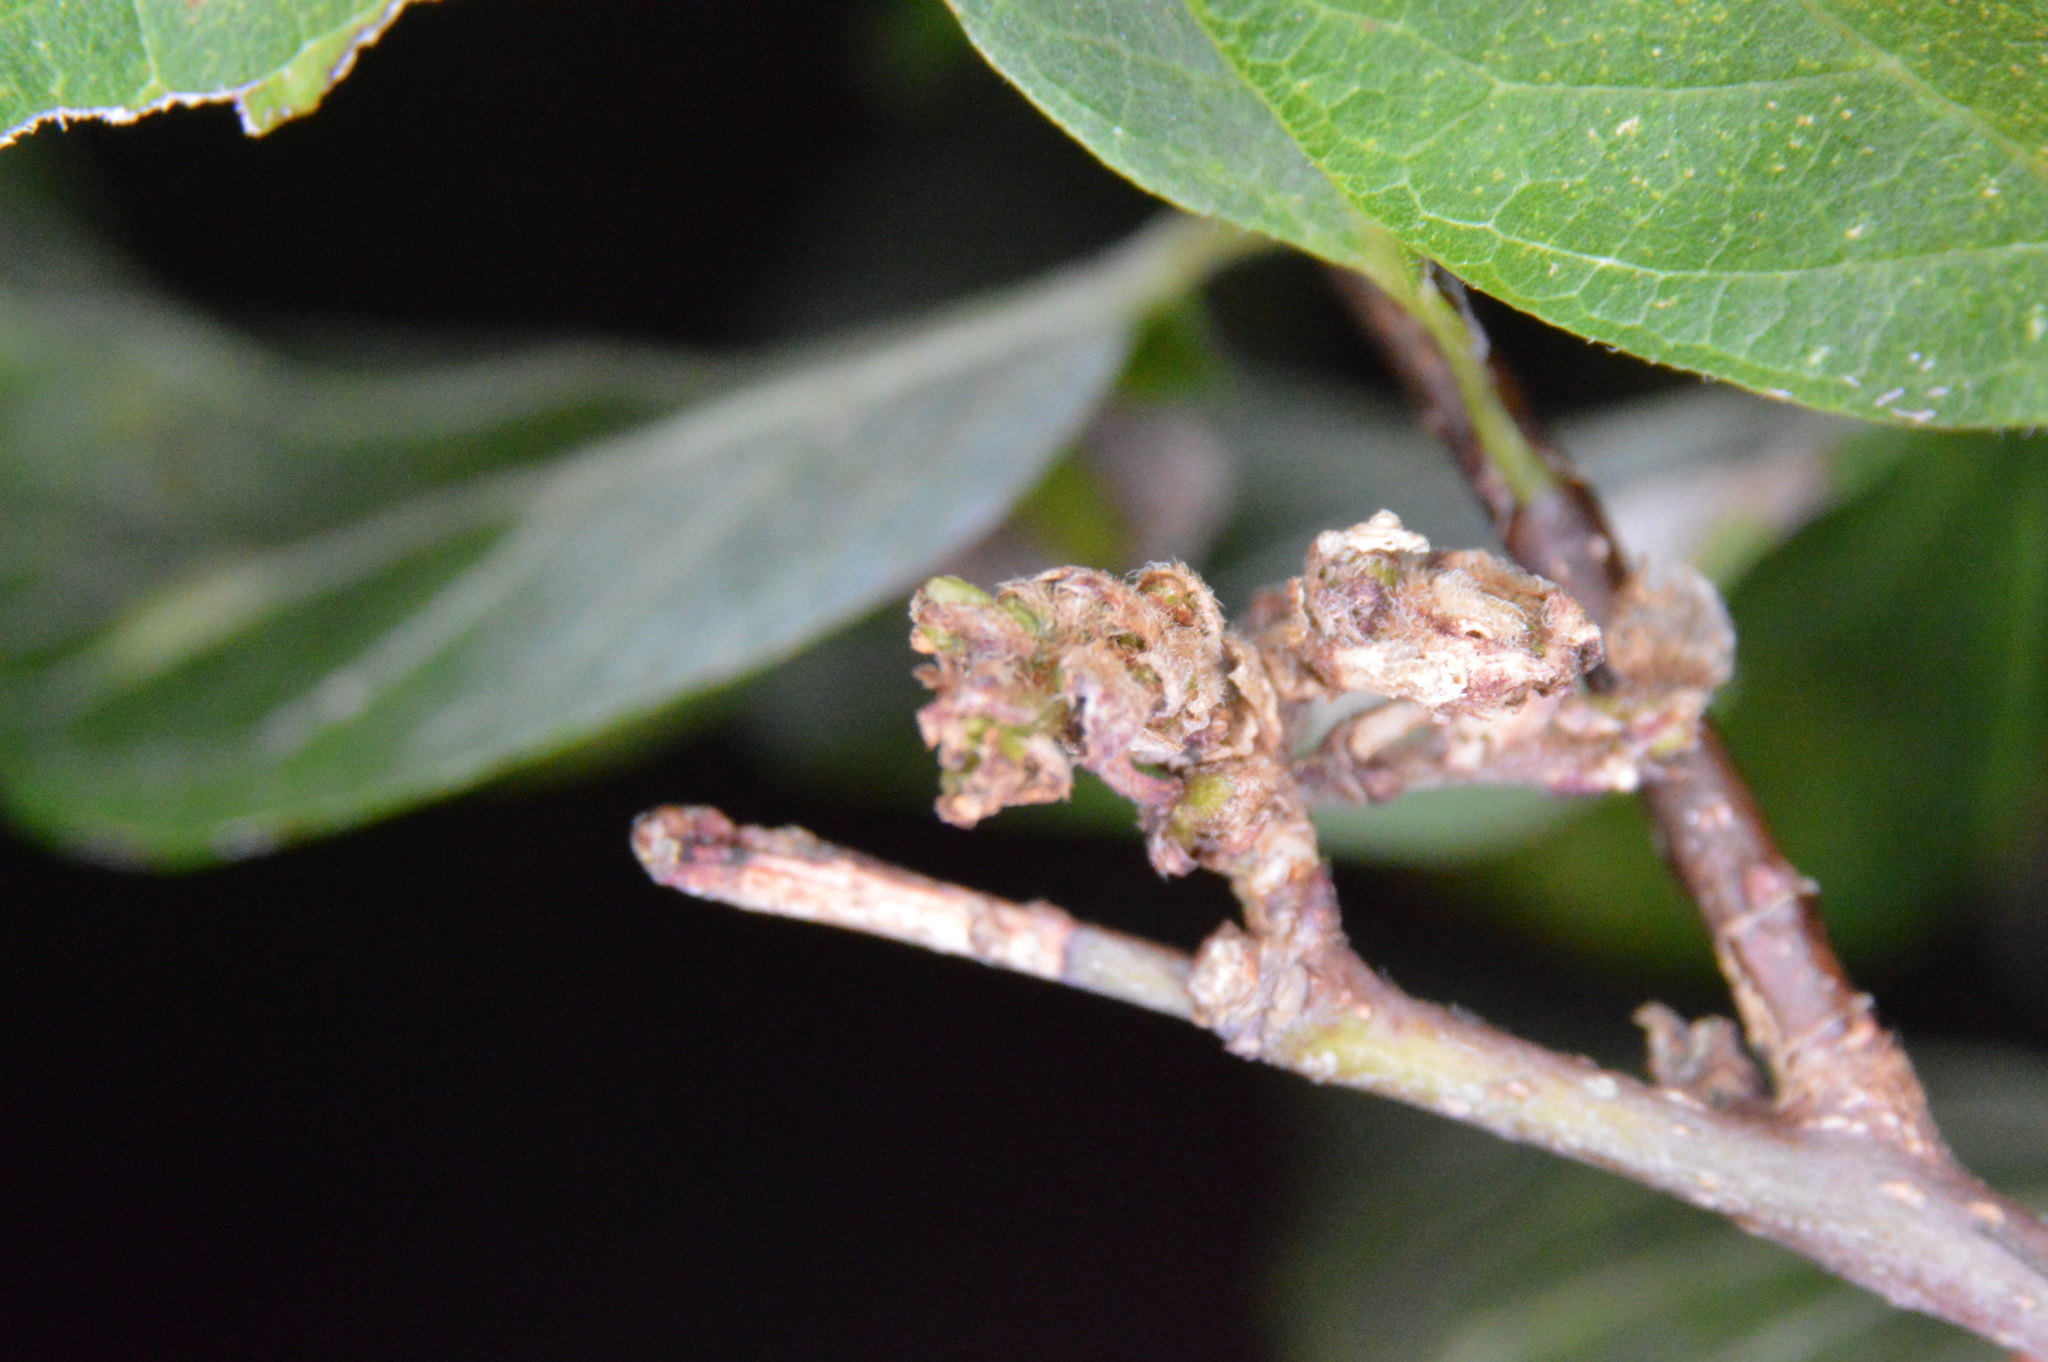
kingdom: Animalia
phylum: Arthropoda
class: Arachnida
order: Trombidiformes
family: Eriophyidae
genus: Aceria
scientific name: Aceria
